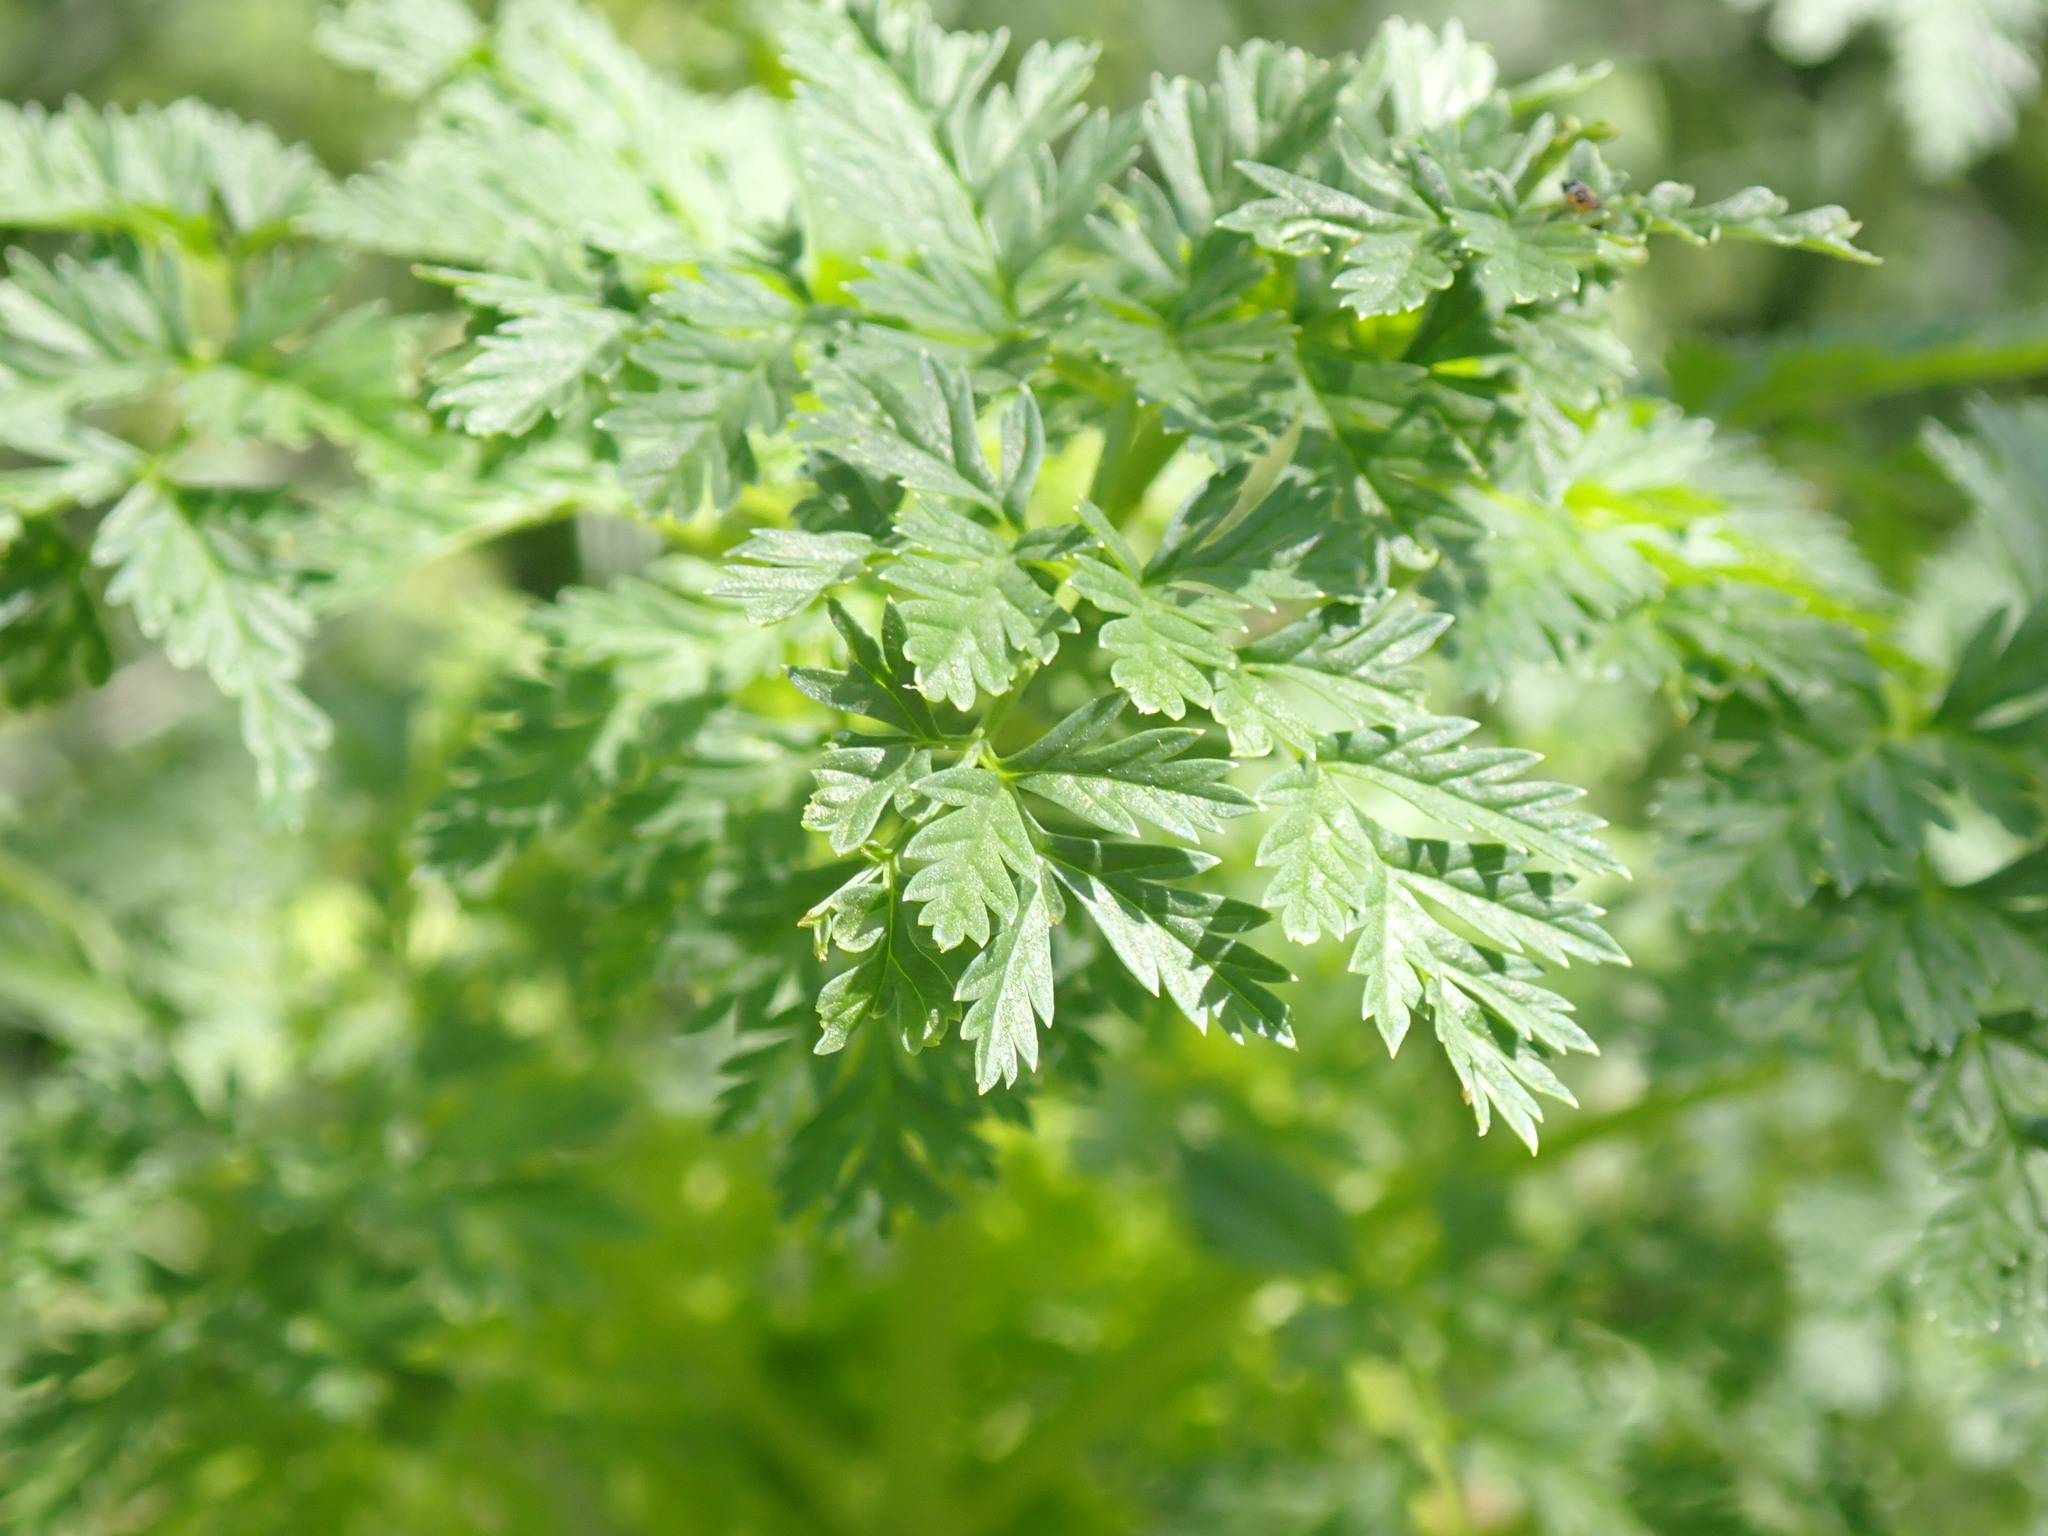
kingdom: Plantae
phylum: Tracheophyta
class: Magnoliopsida
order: Apiales
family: Apiaceae
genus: Conium
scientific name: Conium maculatum
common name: Hemlock
